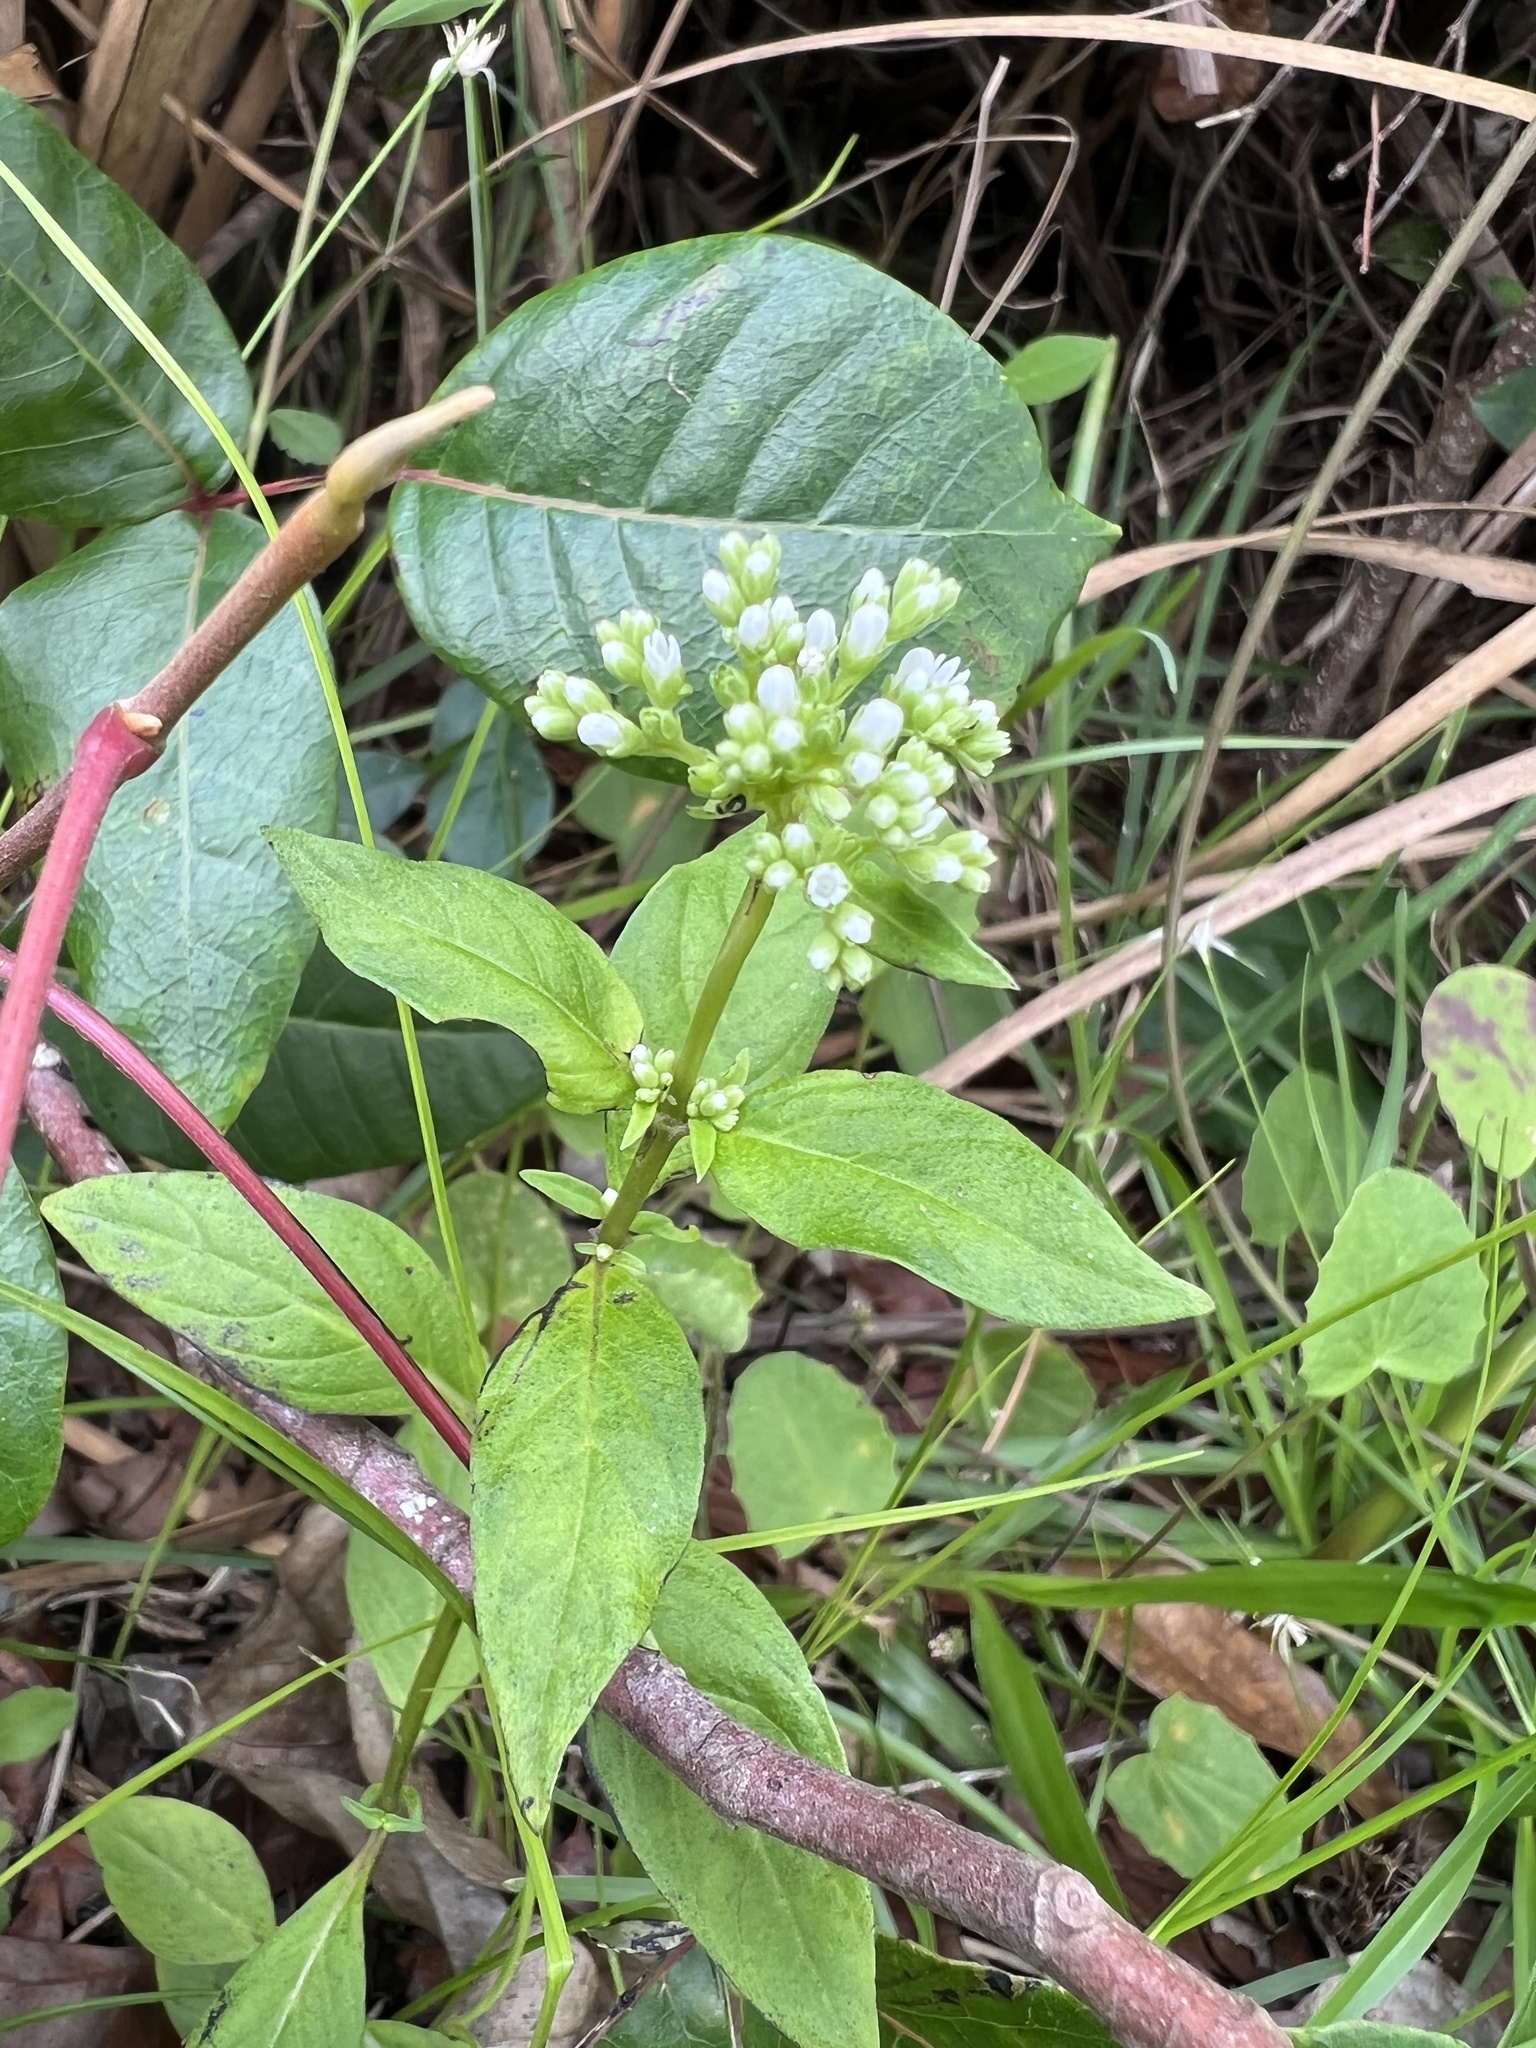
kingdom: Plantae
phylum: Tracheophyta
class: Magnoliopsida
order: Gentianales
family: Loganiaceae
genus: Mitreola
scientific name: Mitreola petiolata
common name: Lax hornpod
